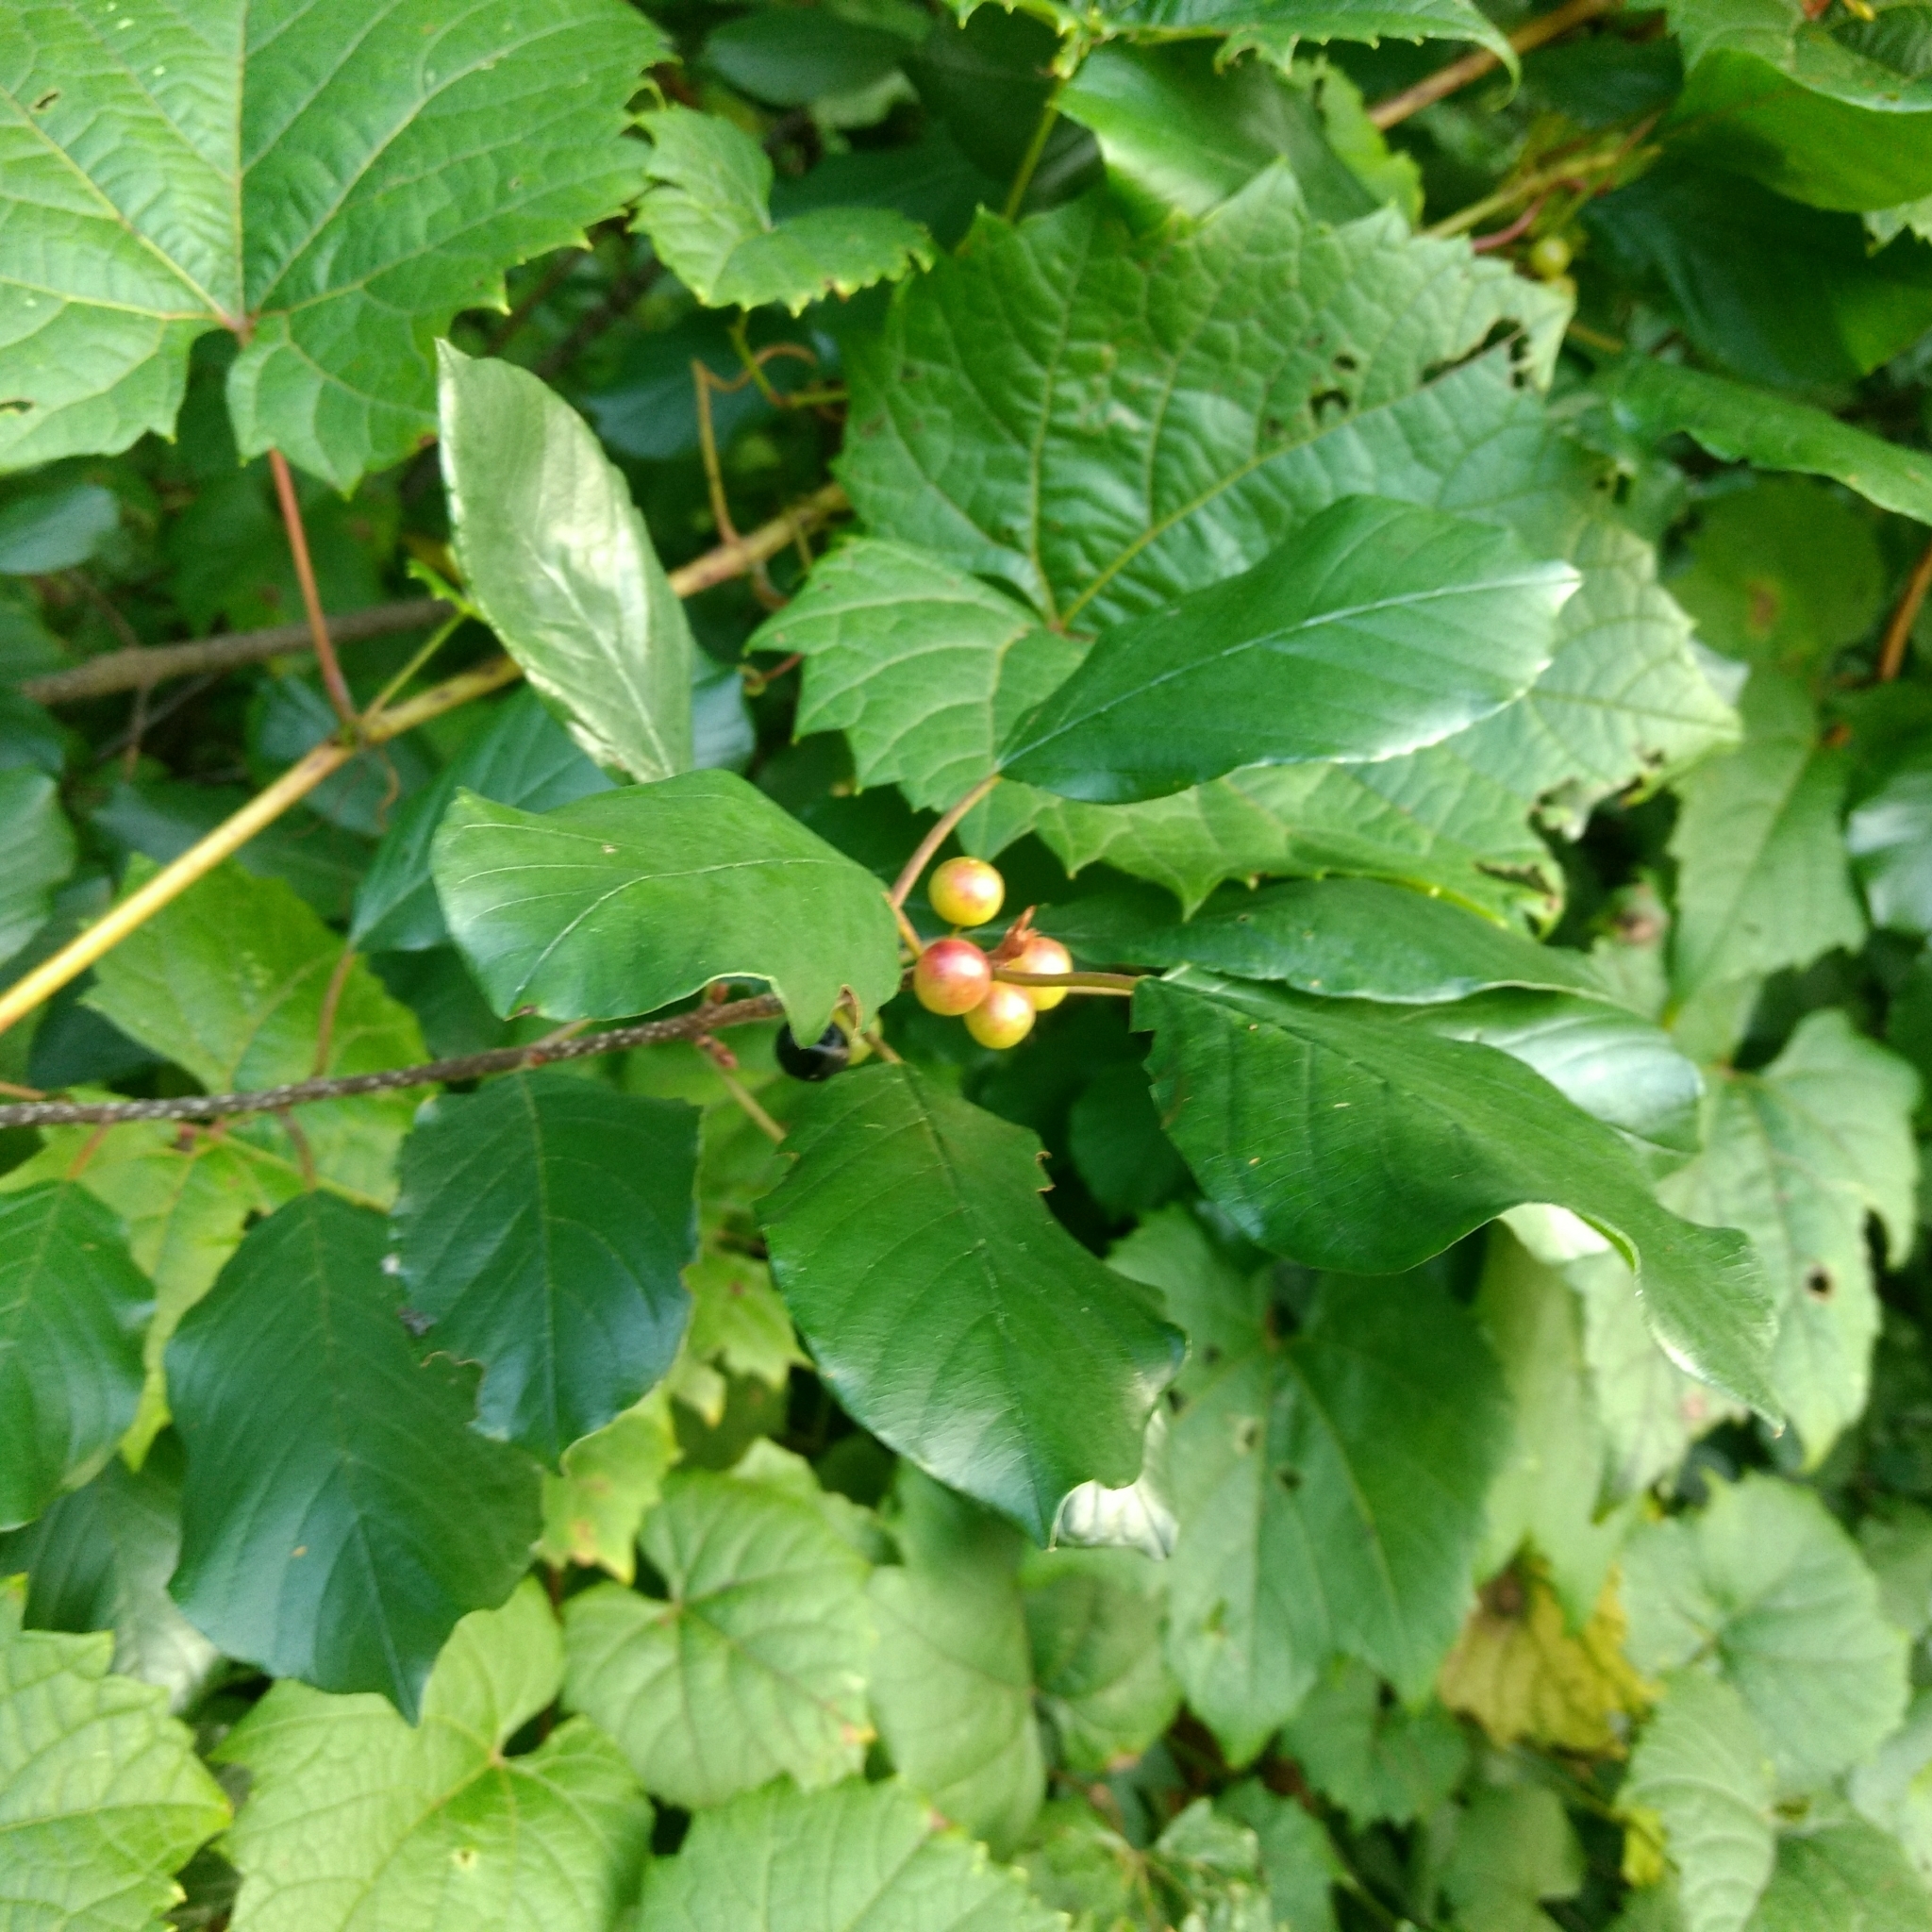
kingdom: Plantae
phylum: Tracheophyta
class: Magnoliopsida
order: Rosales
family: Rhamnaceae
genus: Frangula
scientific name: Frangula alnus
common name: Alder buckthorn
